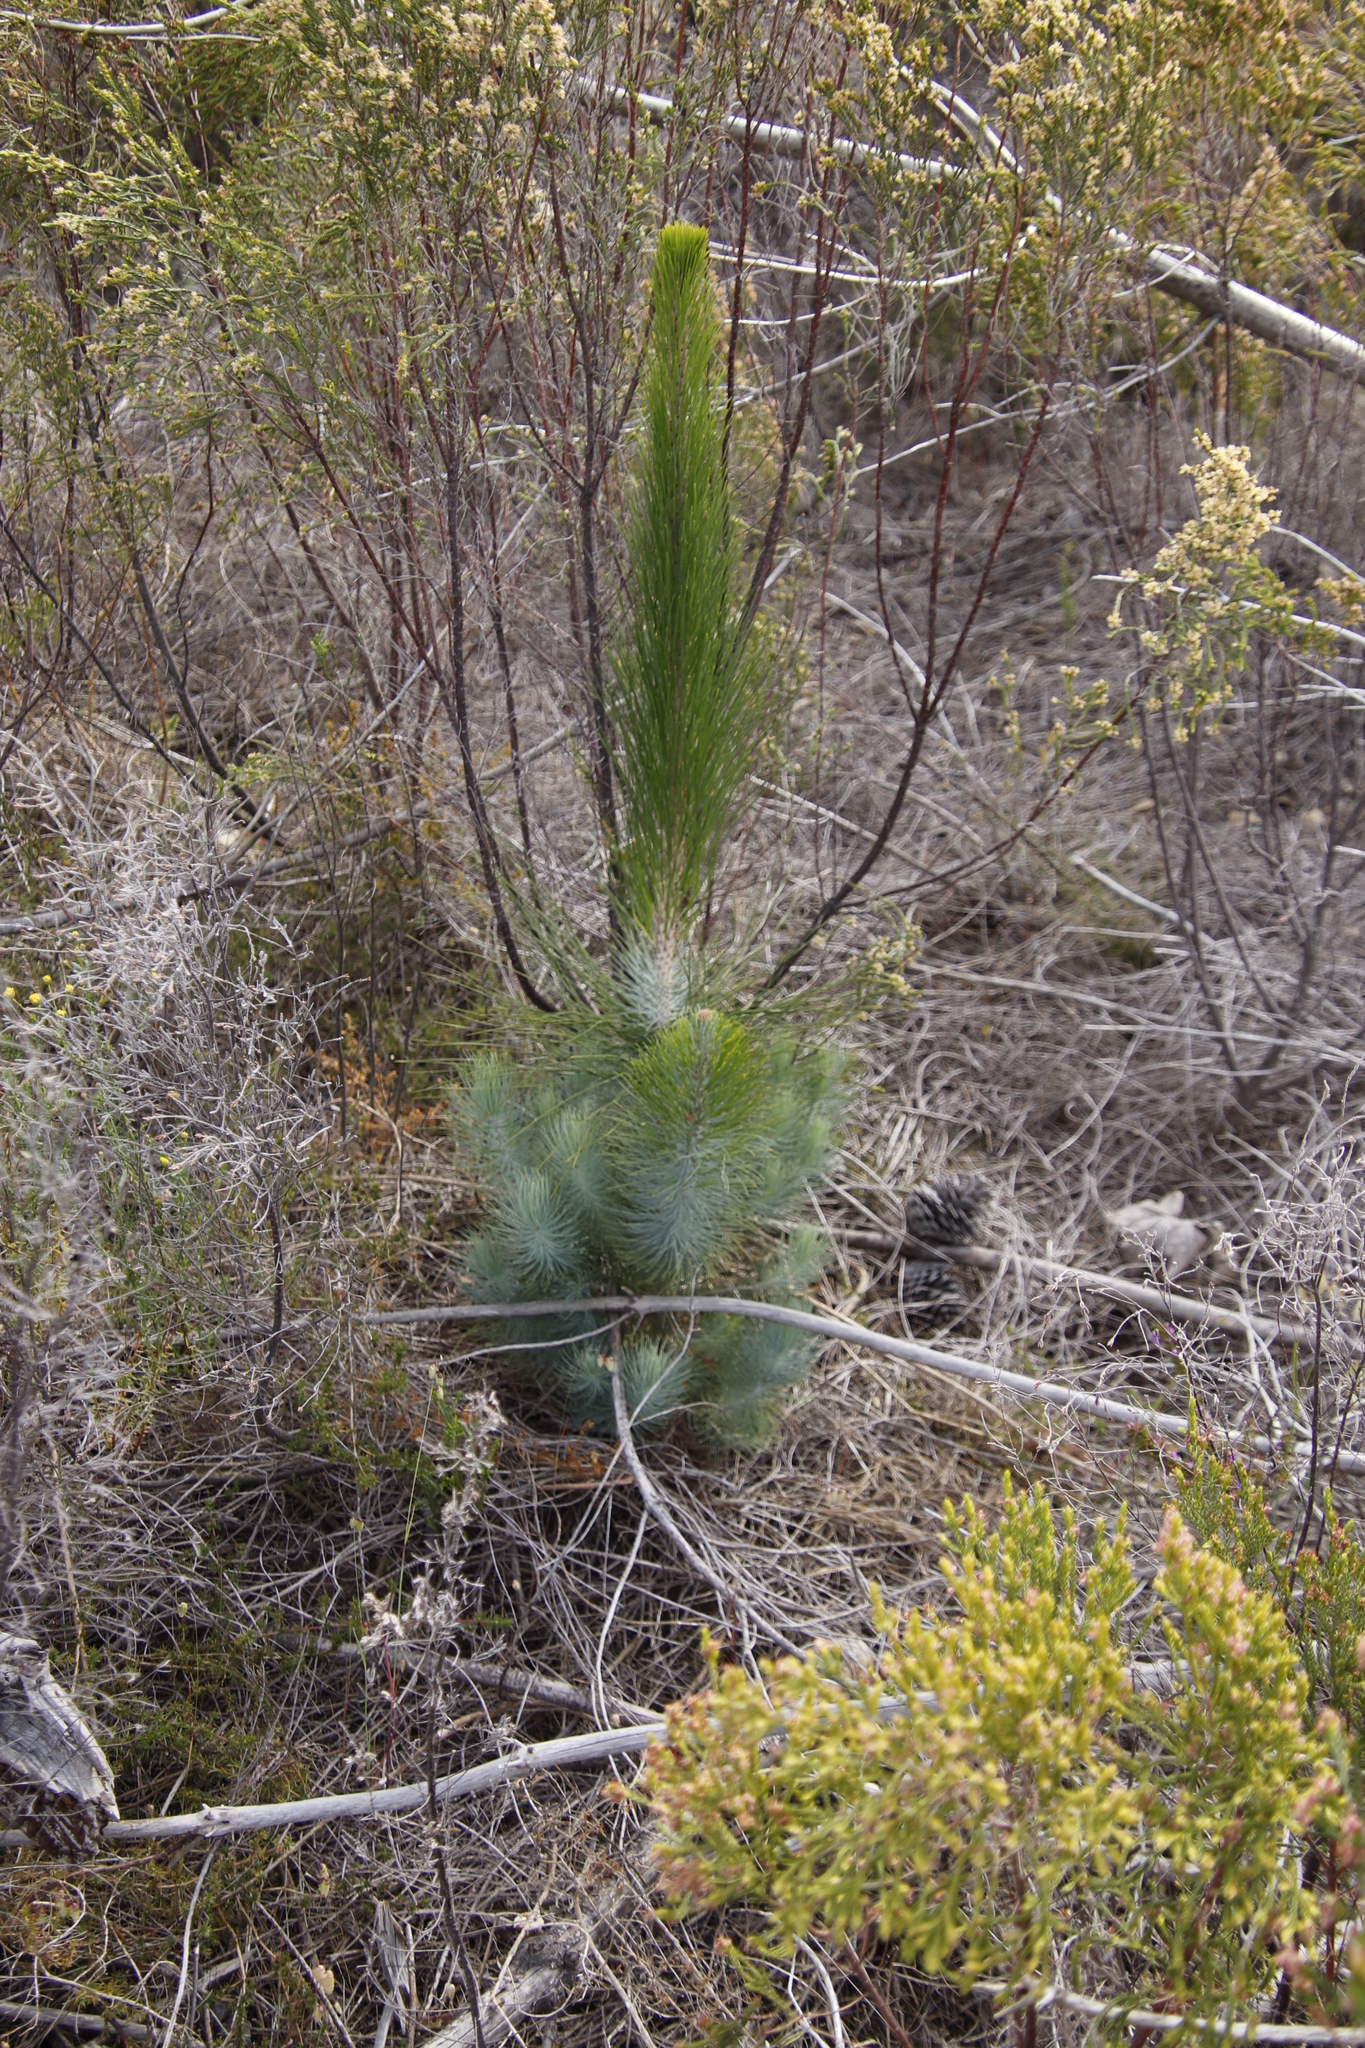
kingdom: Plantae
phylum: Tracheophyta
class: Pinopsida
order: Pinales
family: Pinaceae
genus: Pinus
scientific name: Pinus canariensis
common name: Canary islands pine
